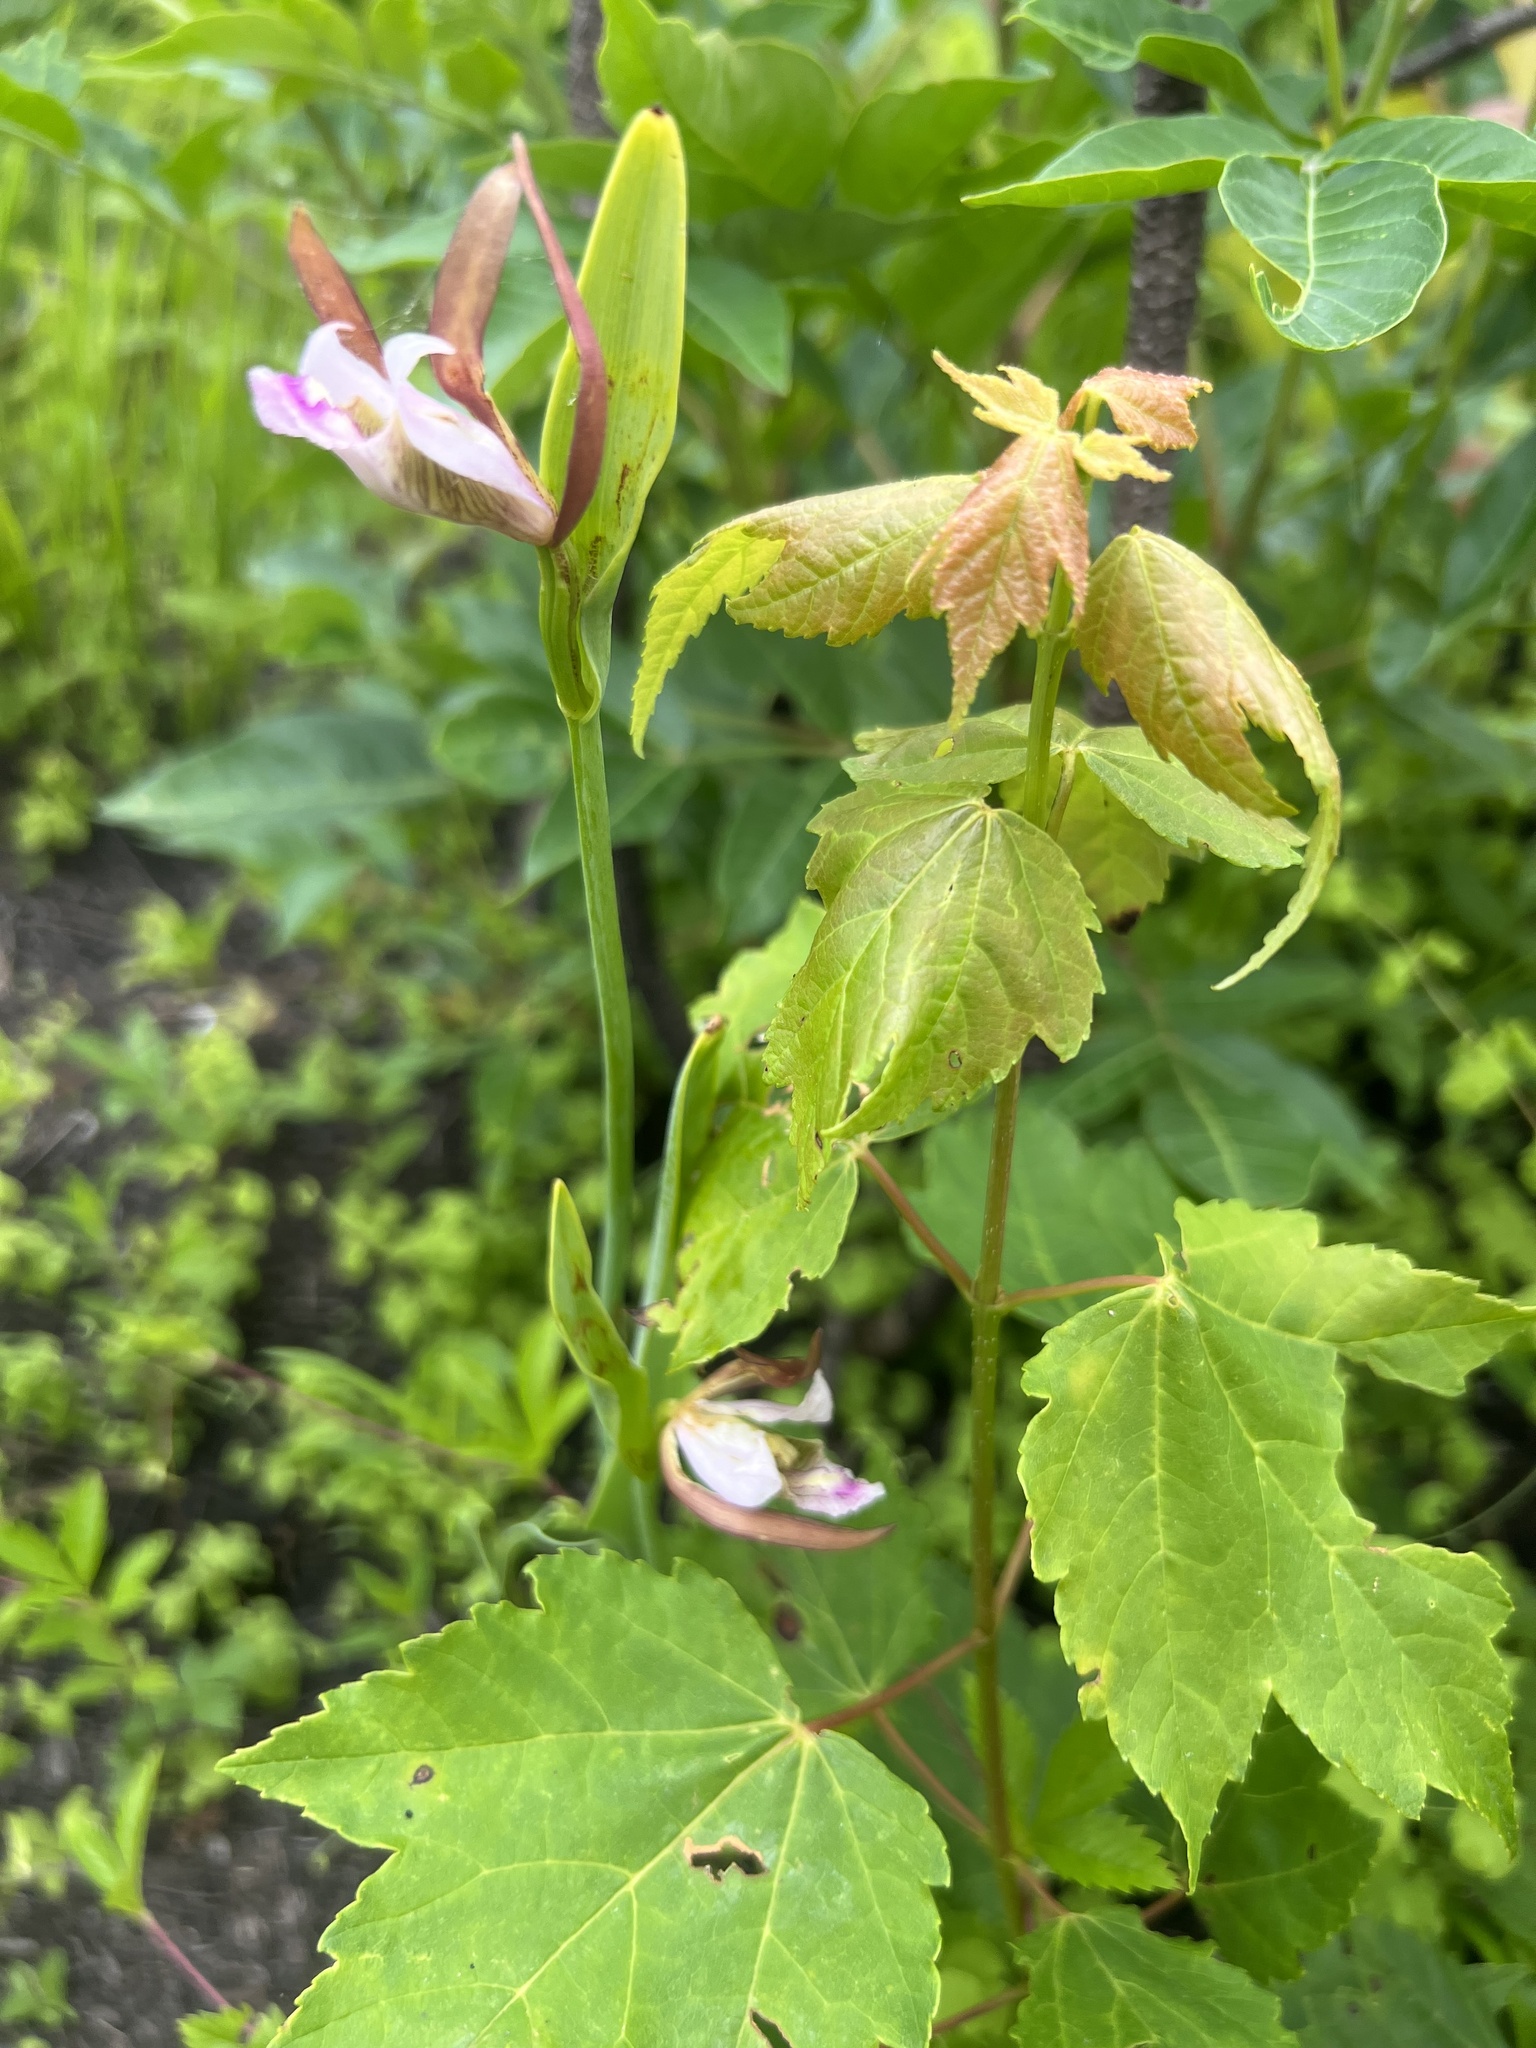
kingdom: Plantae
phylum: Tracheophyta
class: Magnoliopsida
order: Sapindales
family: Sapindaceae
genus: Acer
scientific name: Acer rubrum
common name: Red maple
